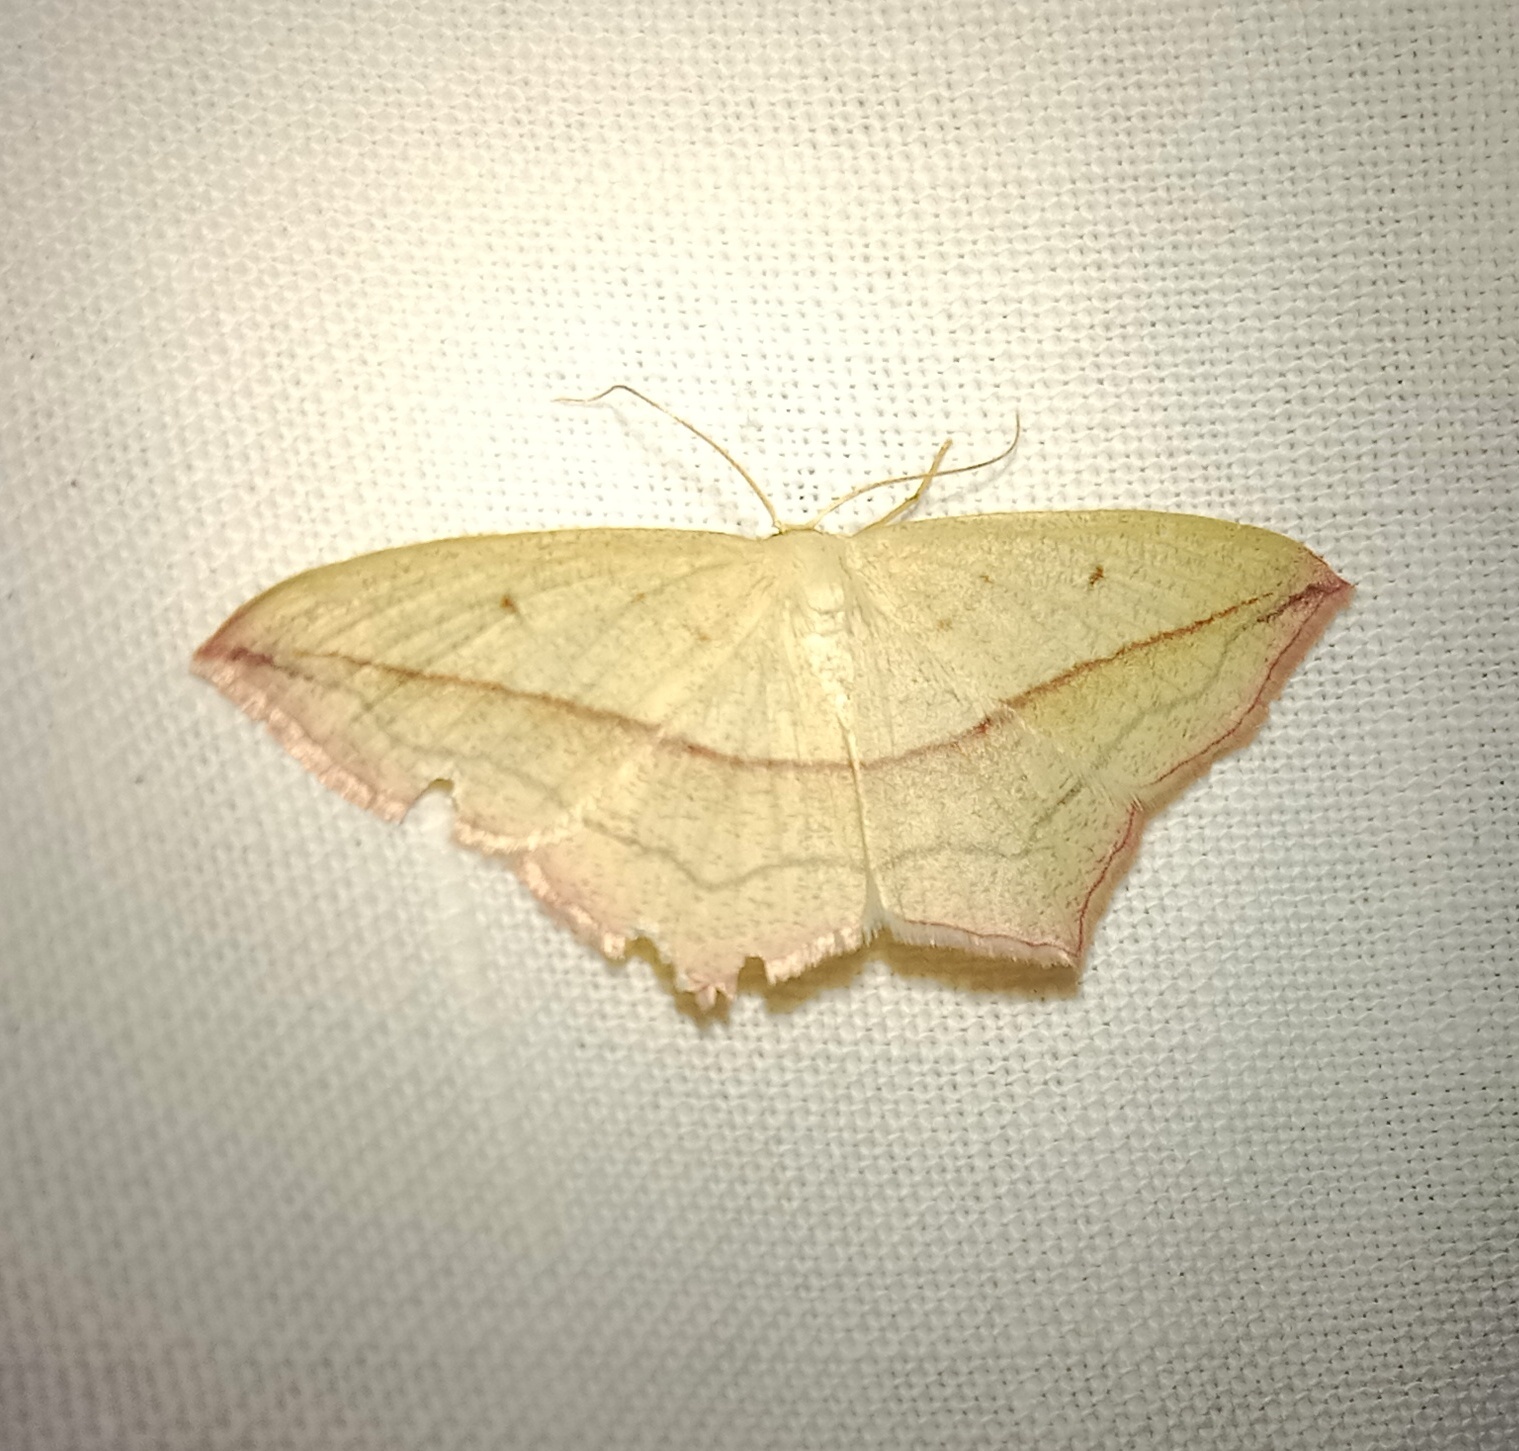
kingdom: Animalia
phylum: Arthropoda
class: Insecta
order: Lepidoptera
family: Geometridae
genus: Timandra
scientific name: Timandra comae
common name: Blood-vein
